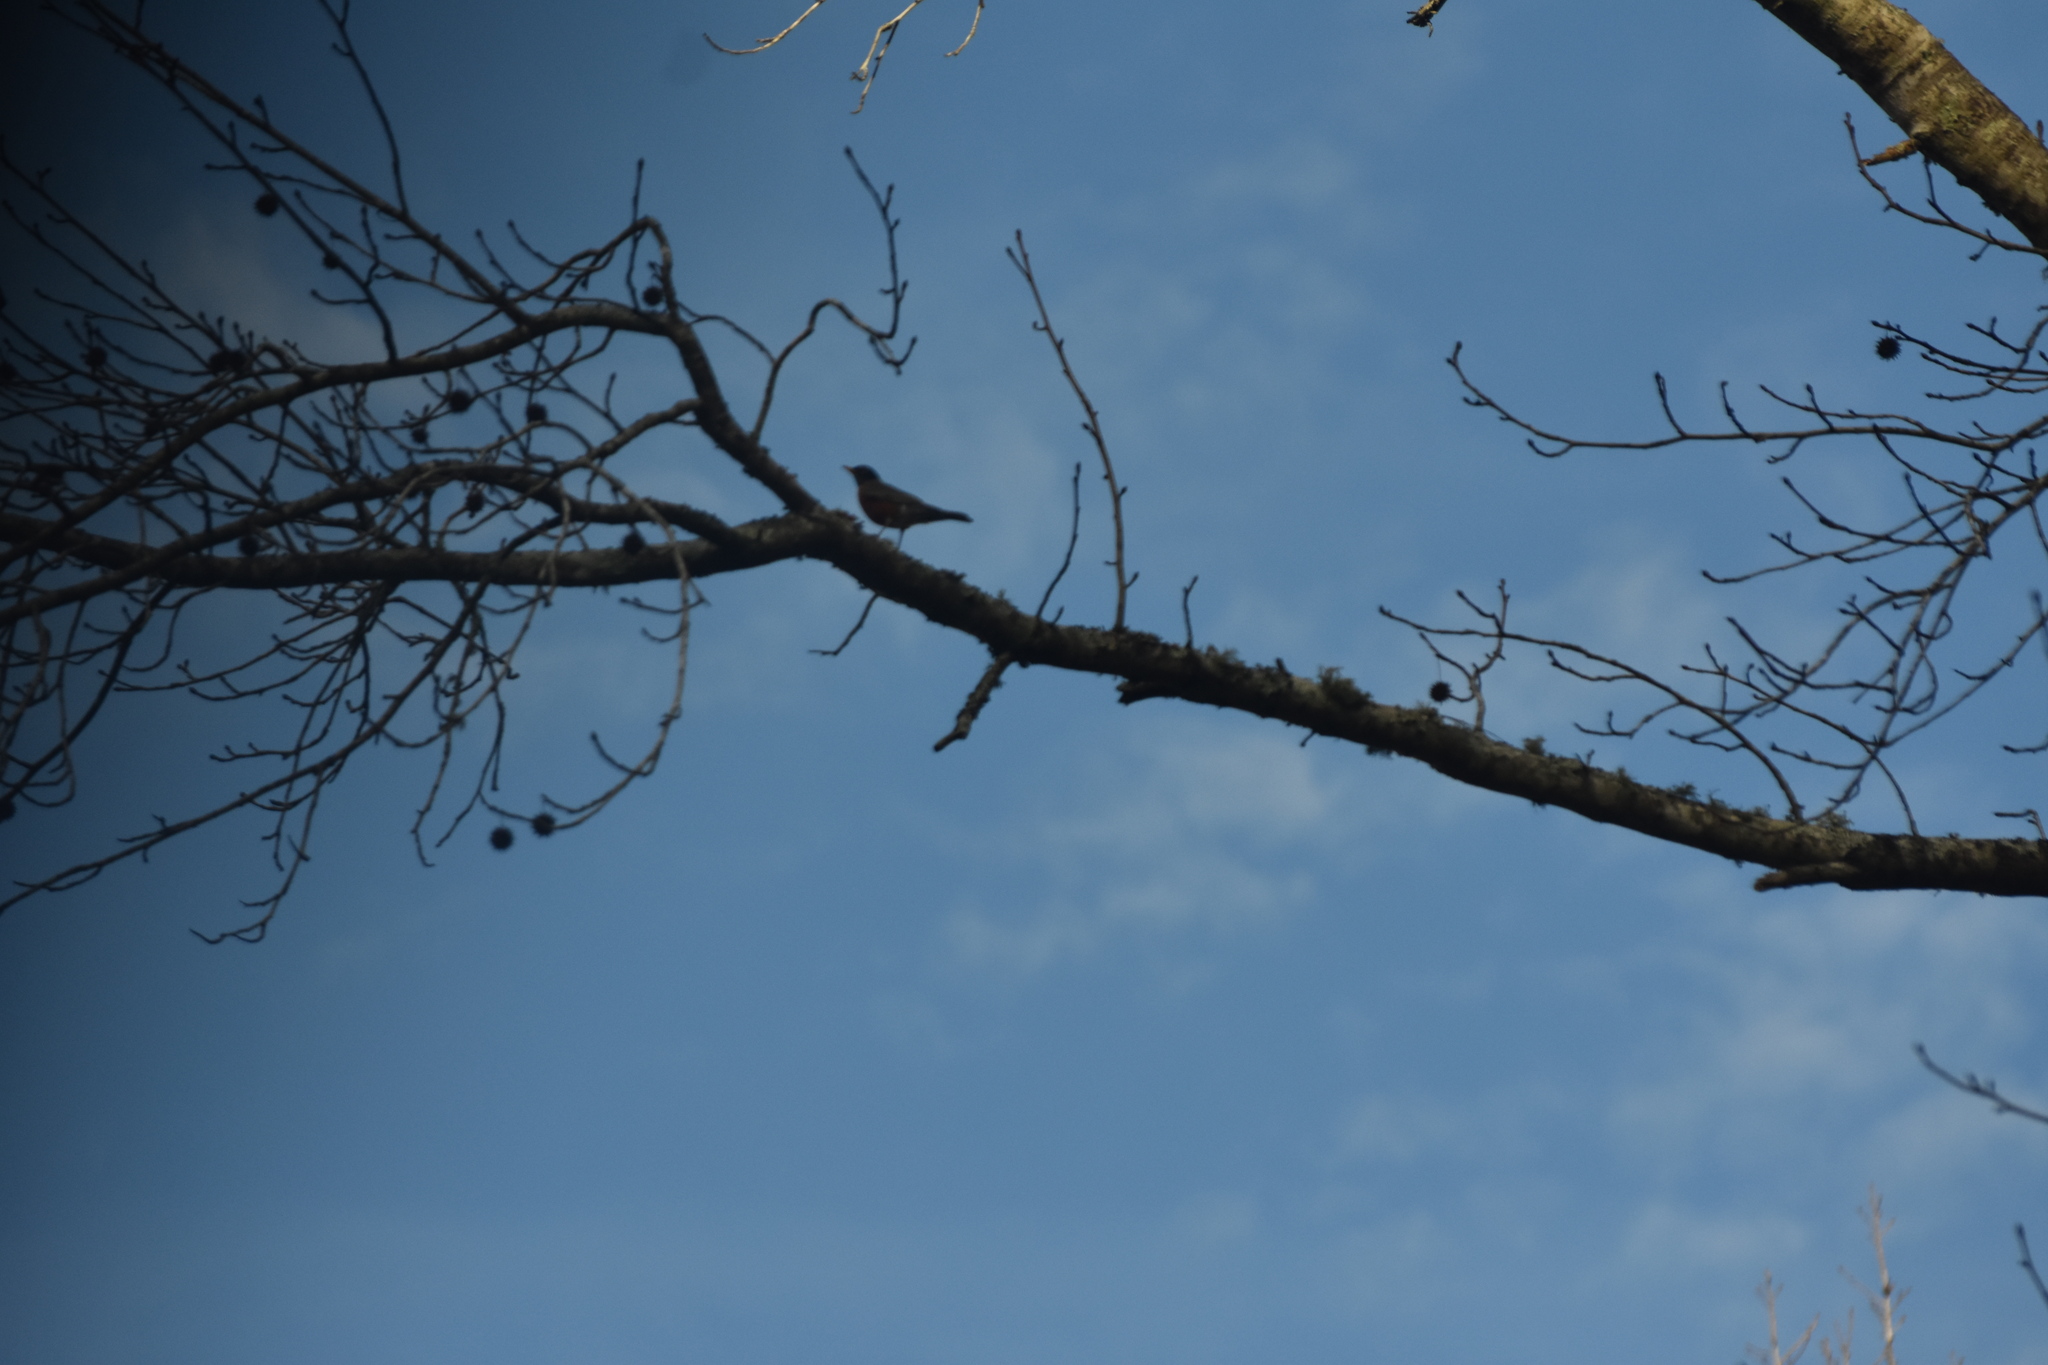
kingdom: Animalia
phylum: Chordata
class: Aves
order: Passeriformes
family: Turdidae
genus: Turdus
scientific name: Turdus migratorius
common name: American robin
